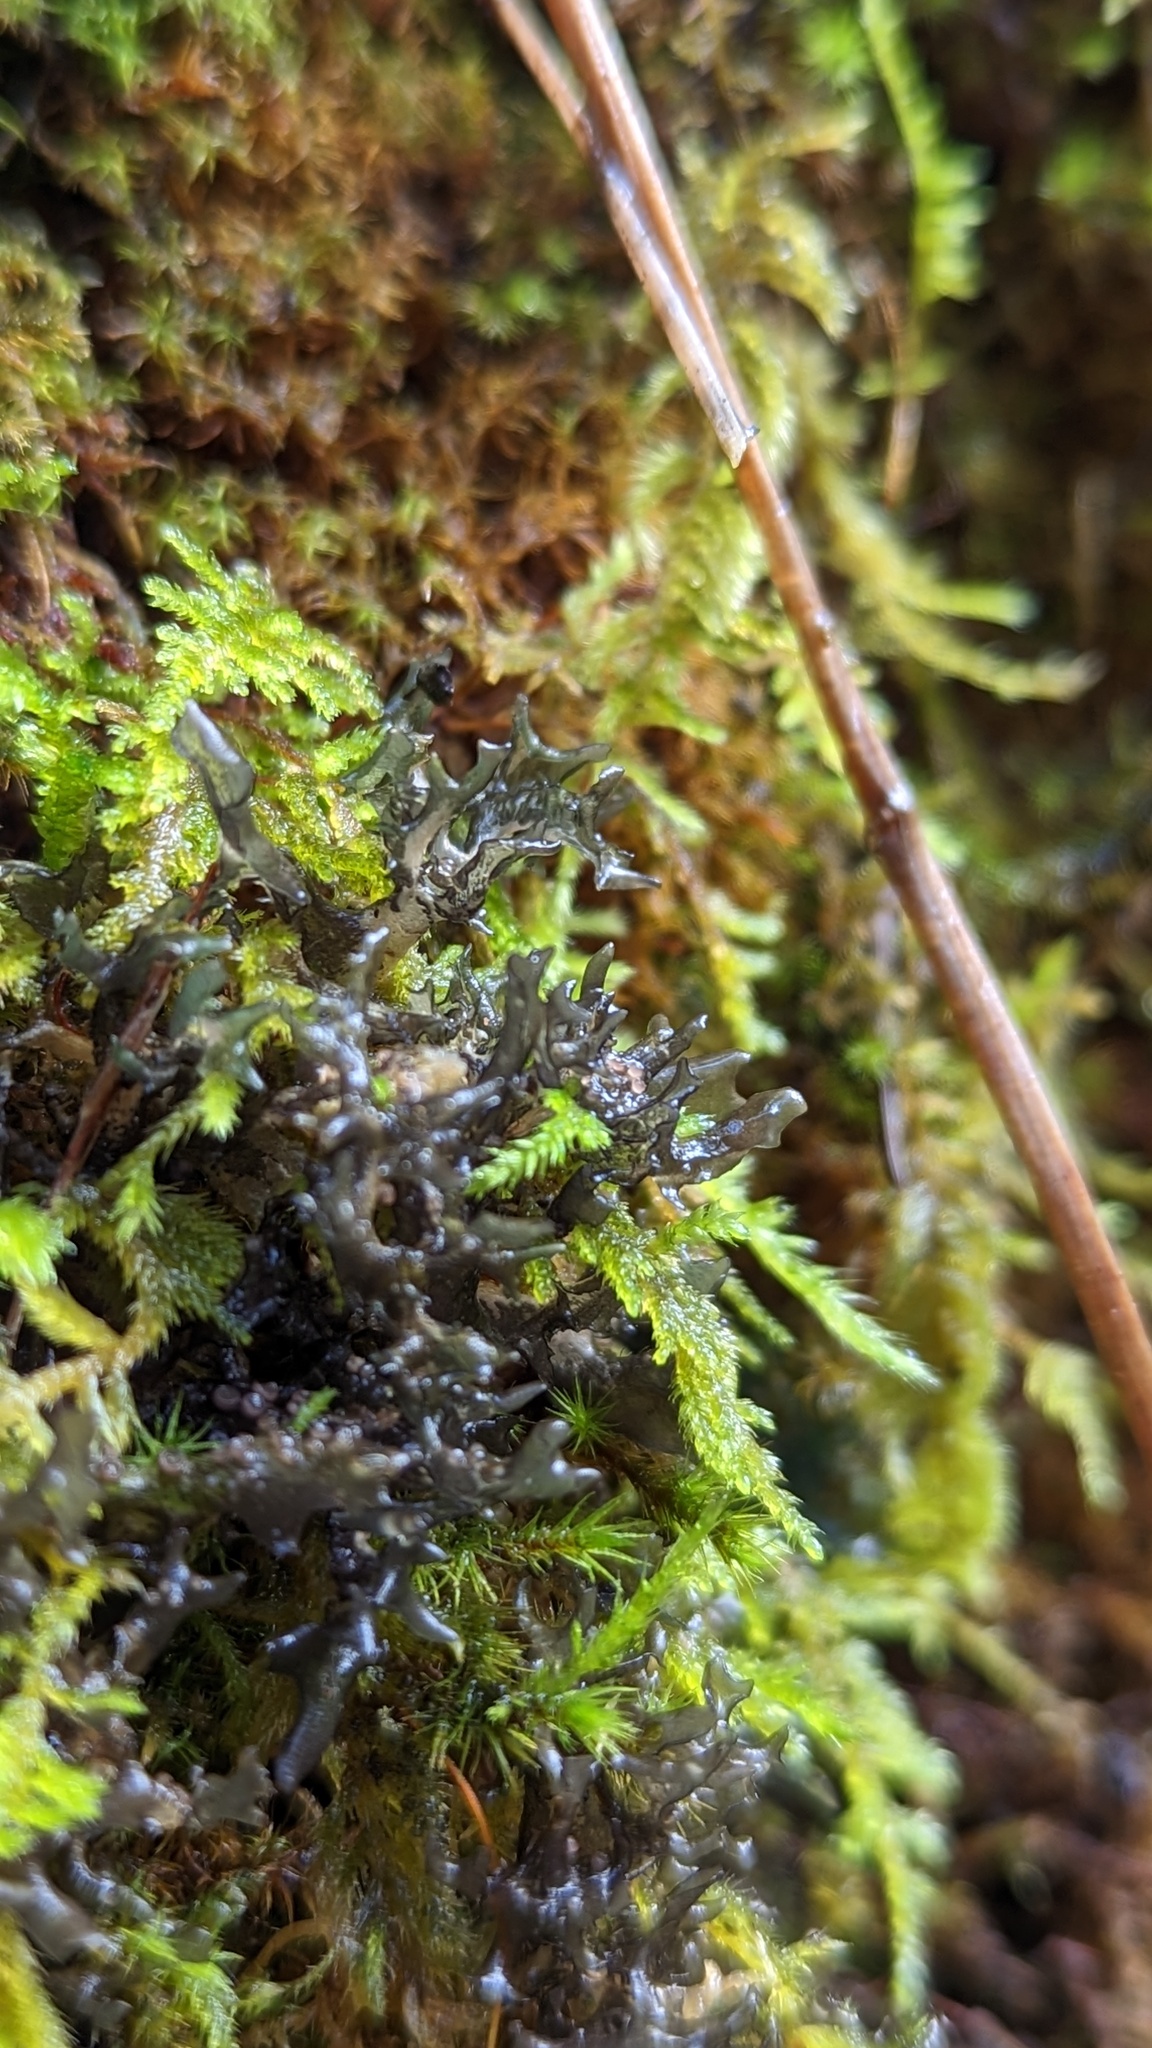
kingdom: Fungi
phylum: Ascomycota
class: Lecanoromycetes
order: Peltigerales
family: Collemataceae
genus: Scytinium
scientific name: Scytinium palmatum
